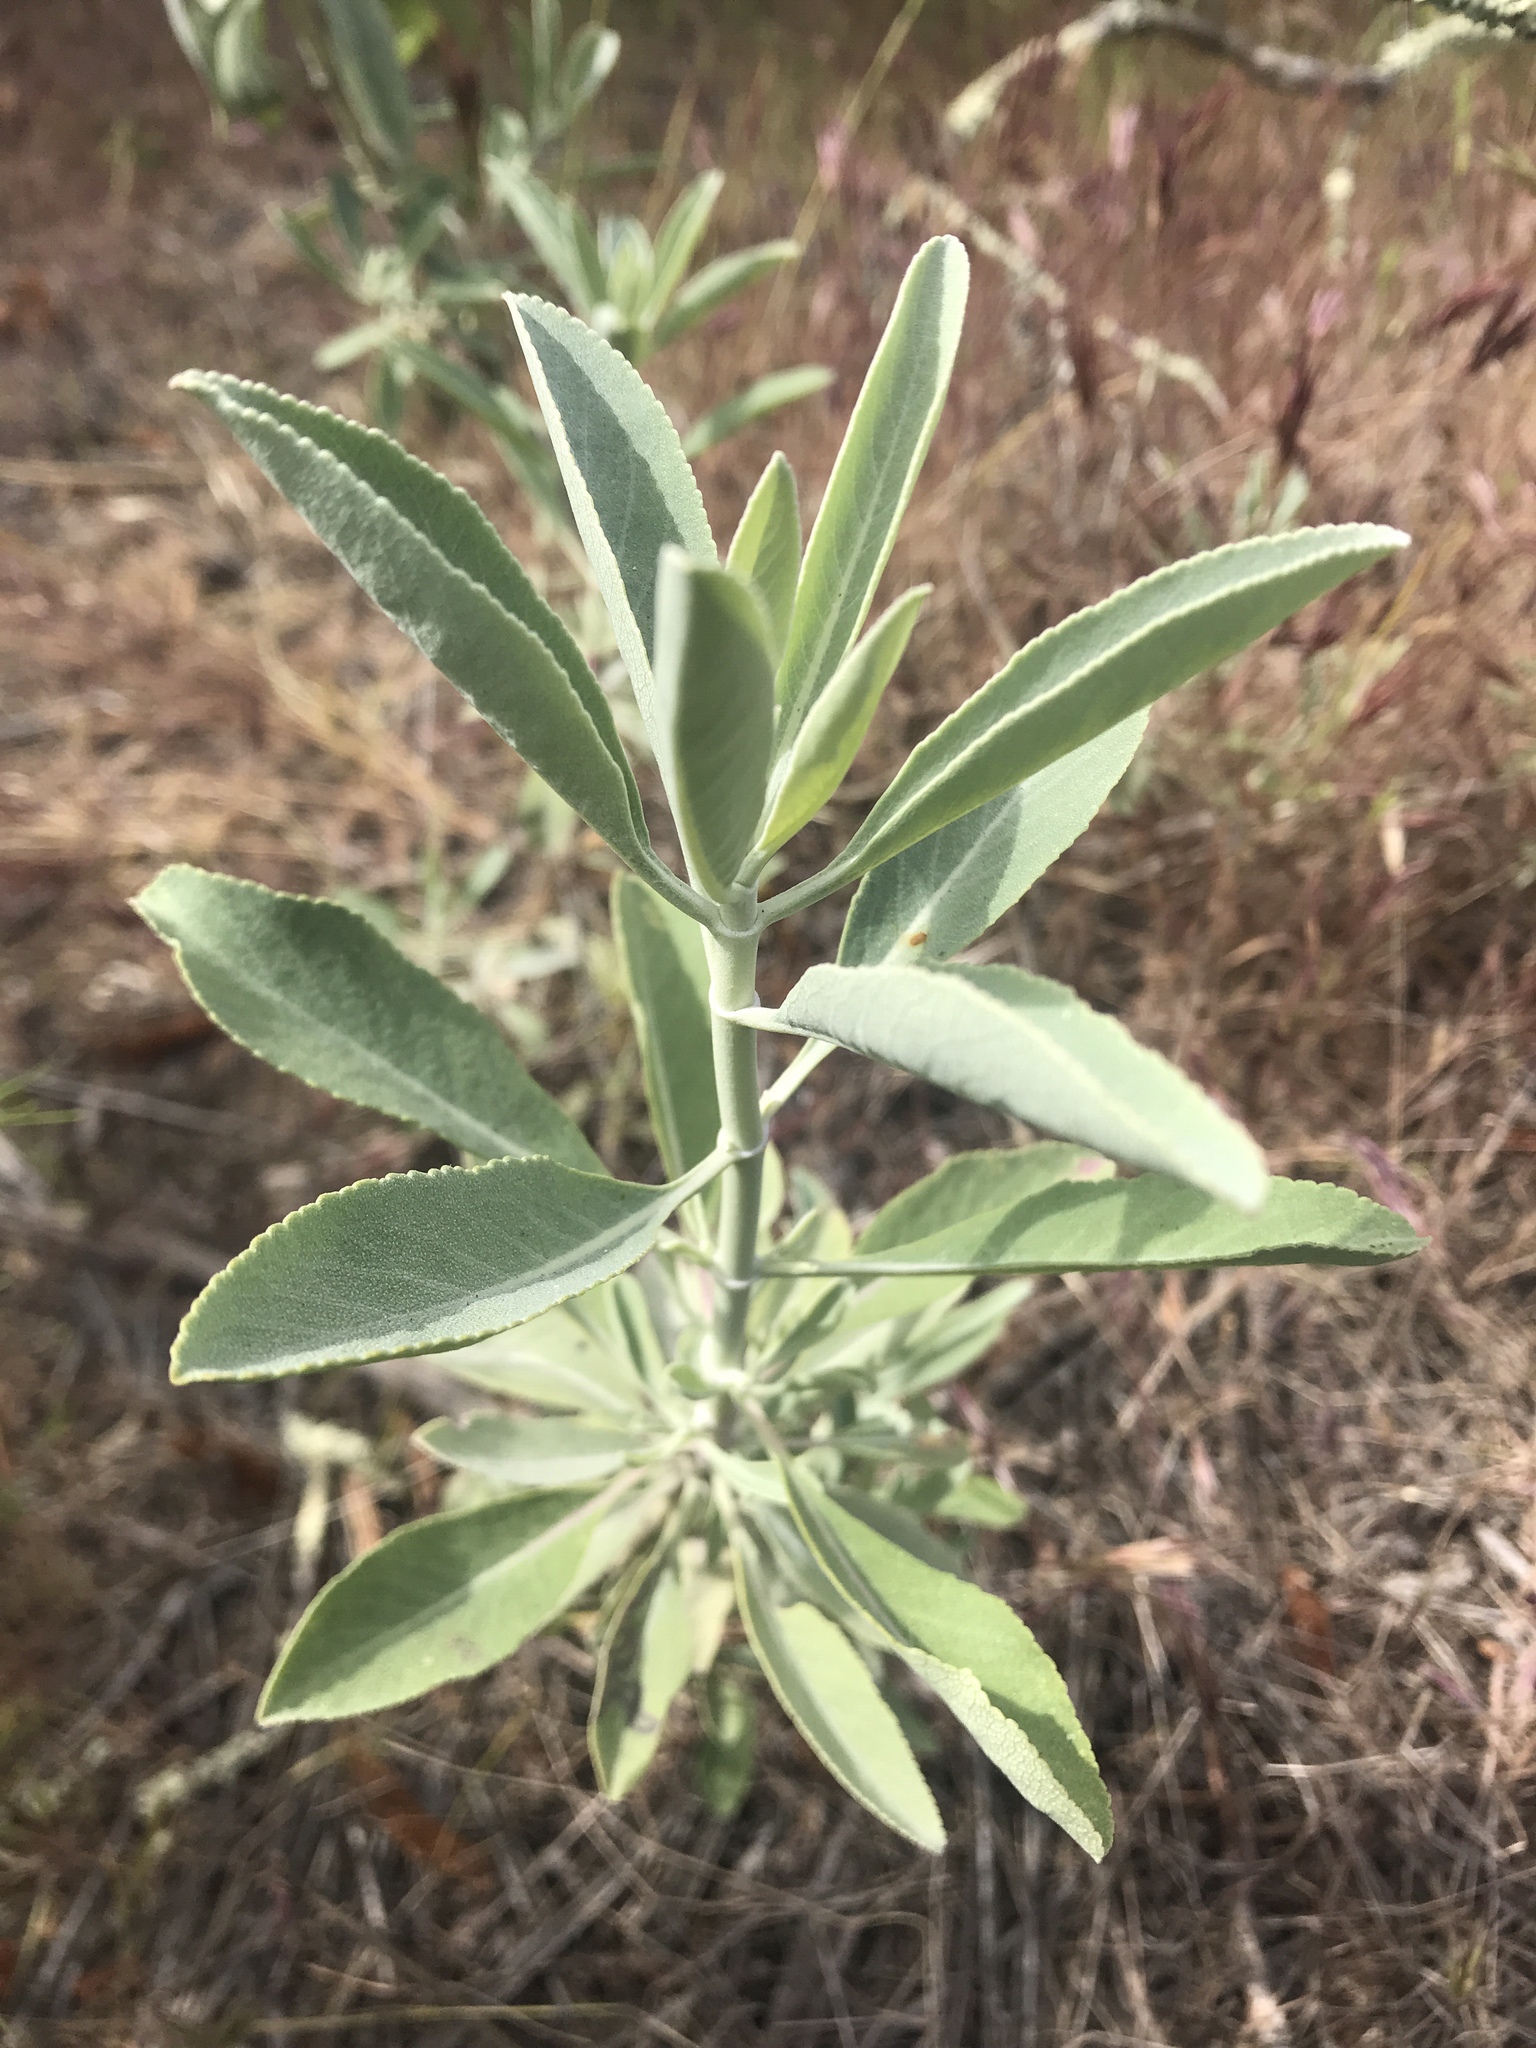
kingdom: Plantae
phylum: Tracheophyta
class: Magnoliopsida
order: Lamiales
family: Lamiaceae
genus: Salvia
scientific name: Salvia apiana
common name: White sage
